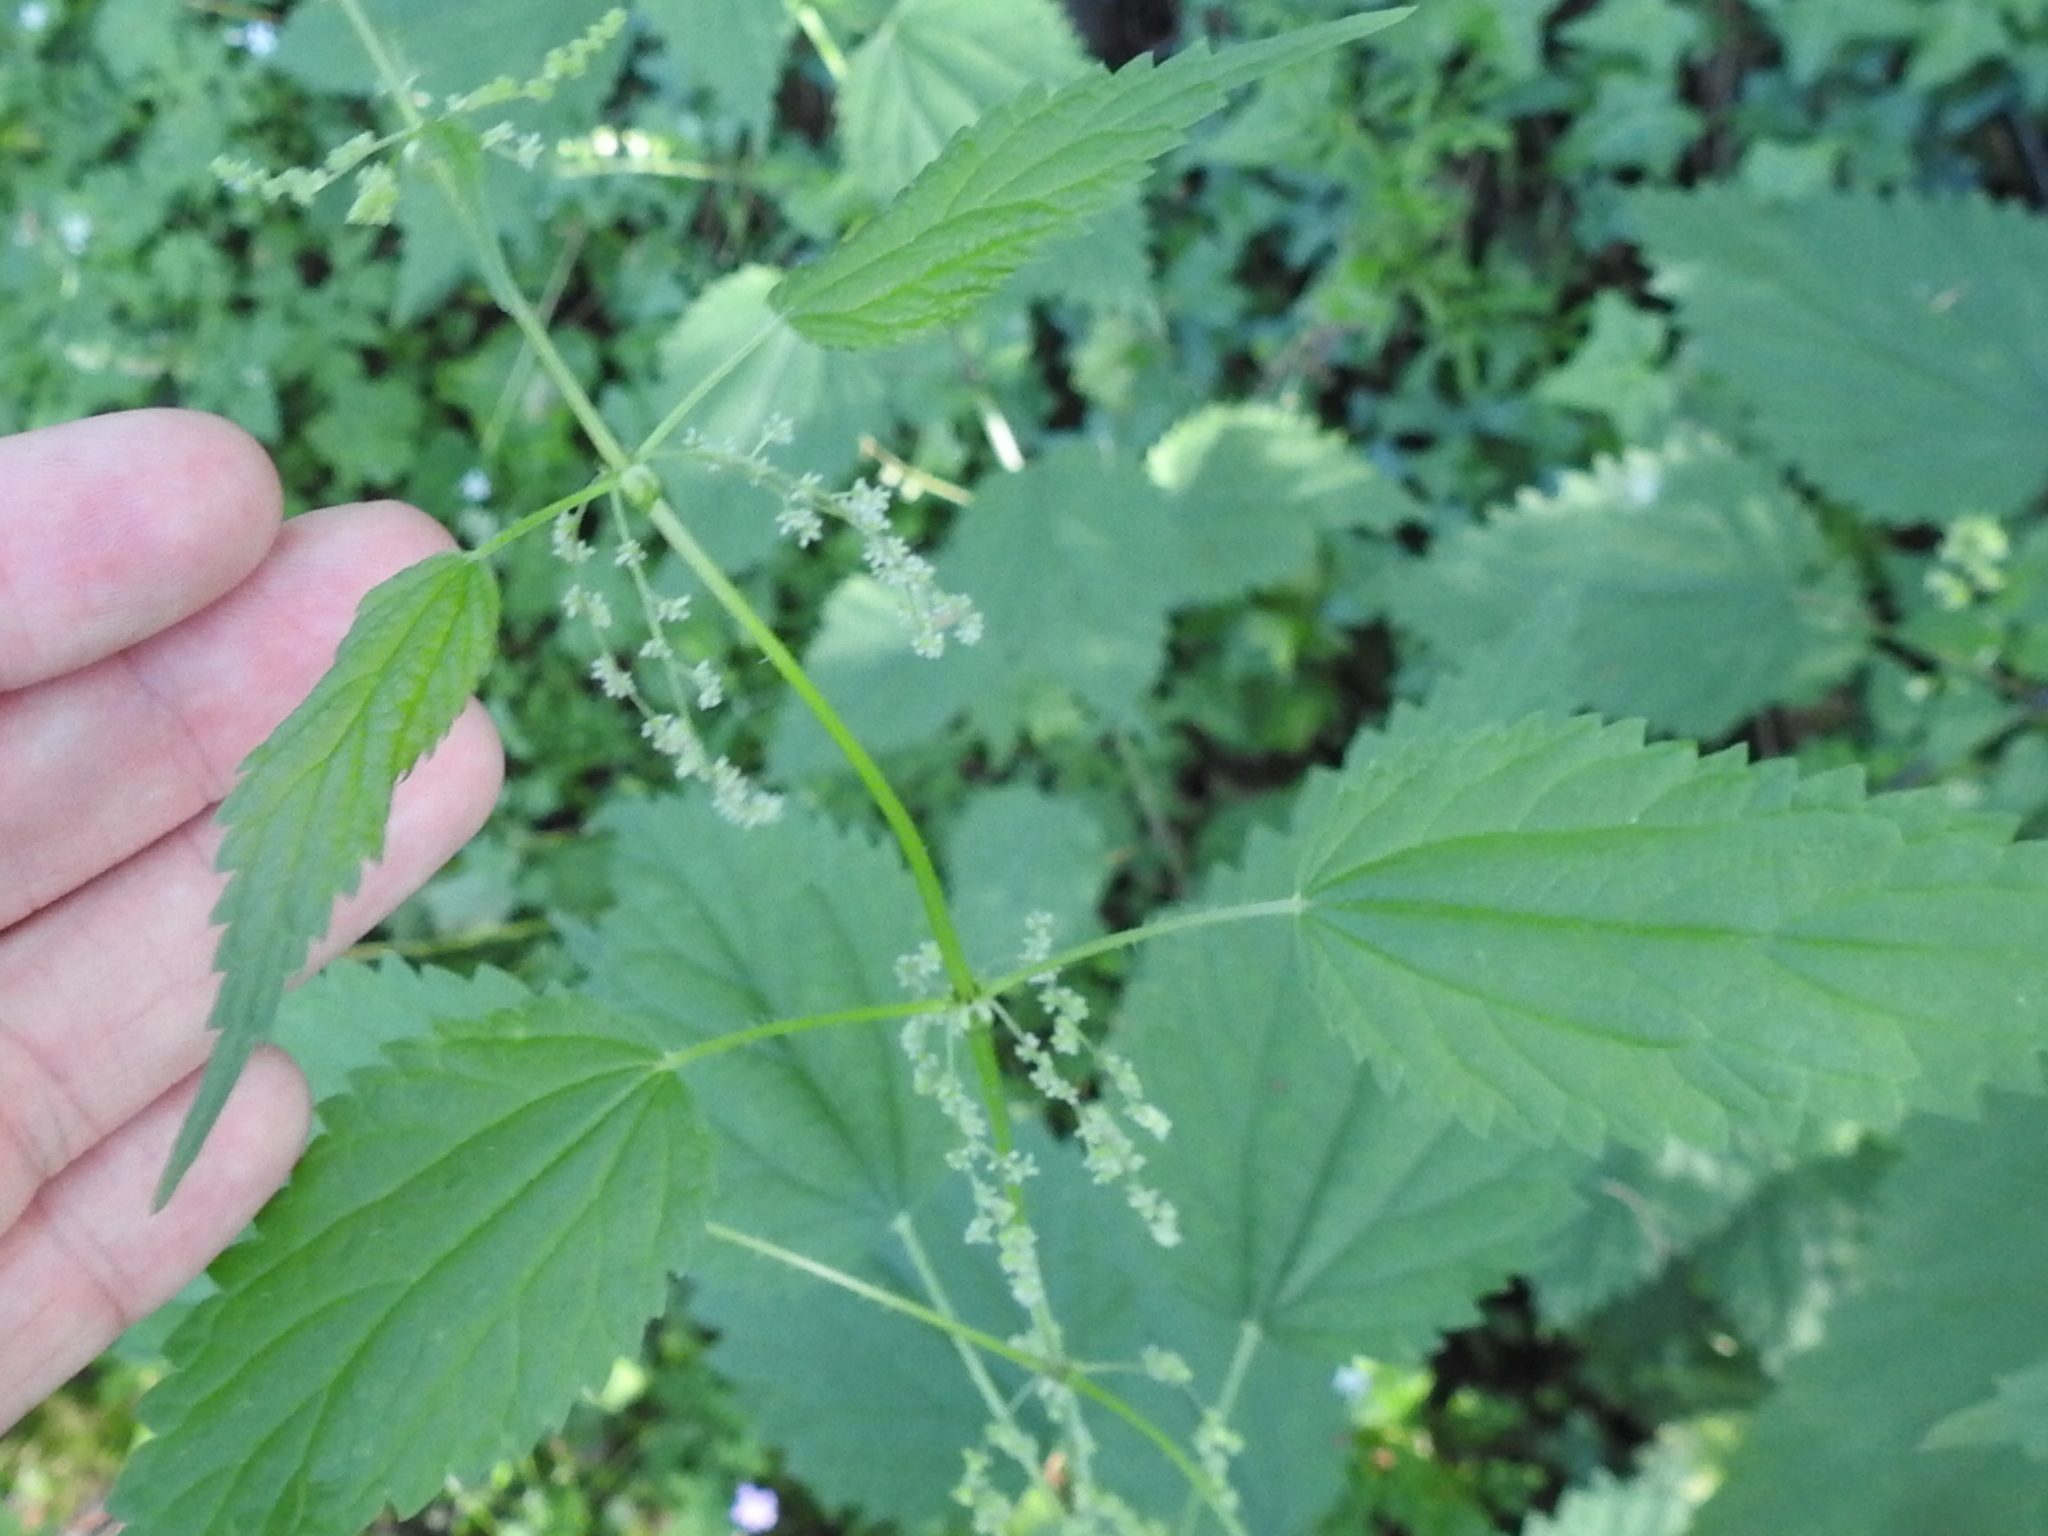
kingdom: Plantae
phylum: Tracheophyta
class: Magnoliopsida
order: Rosales
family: Urticaceae
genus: Urtica
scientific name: Urtica gracilis
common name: Slender stinging nettle
